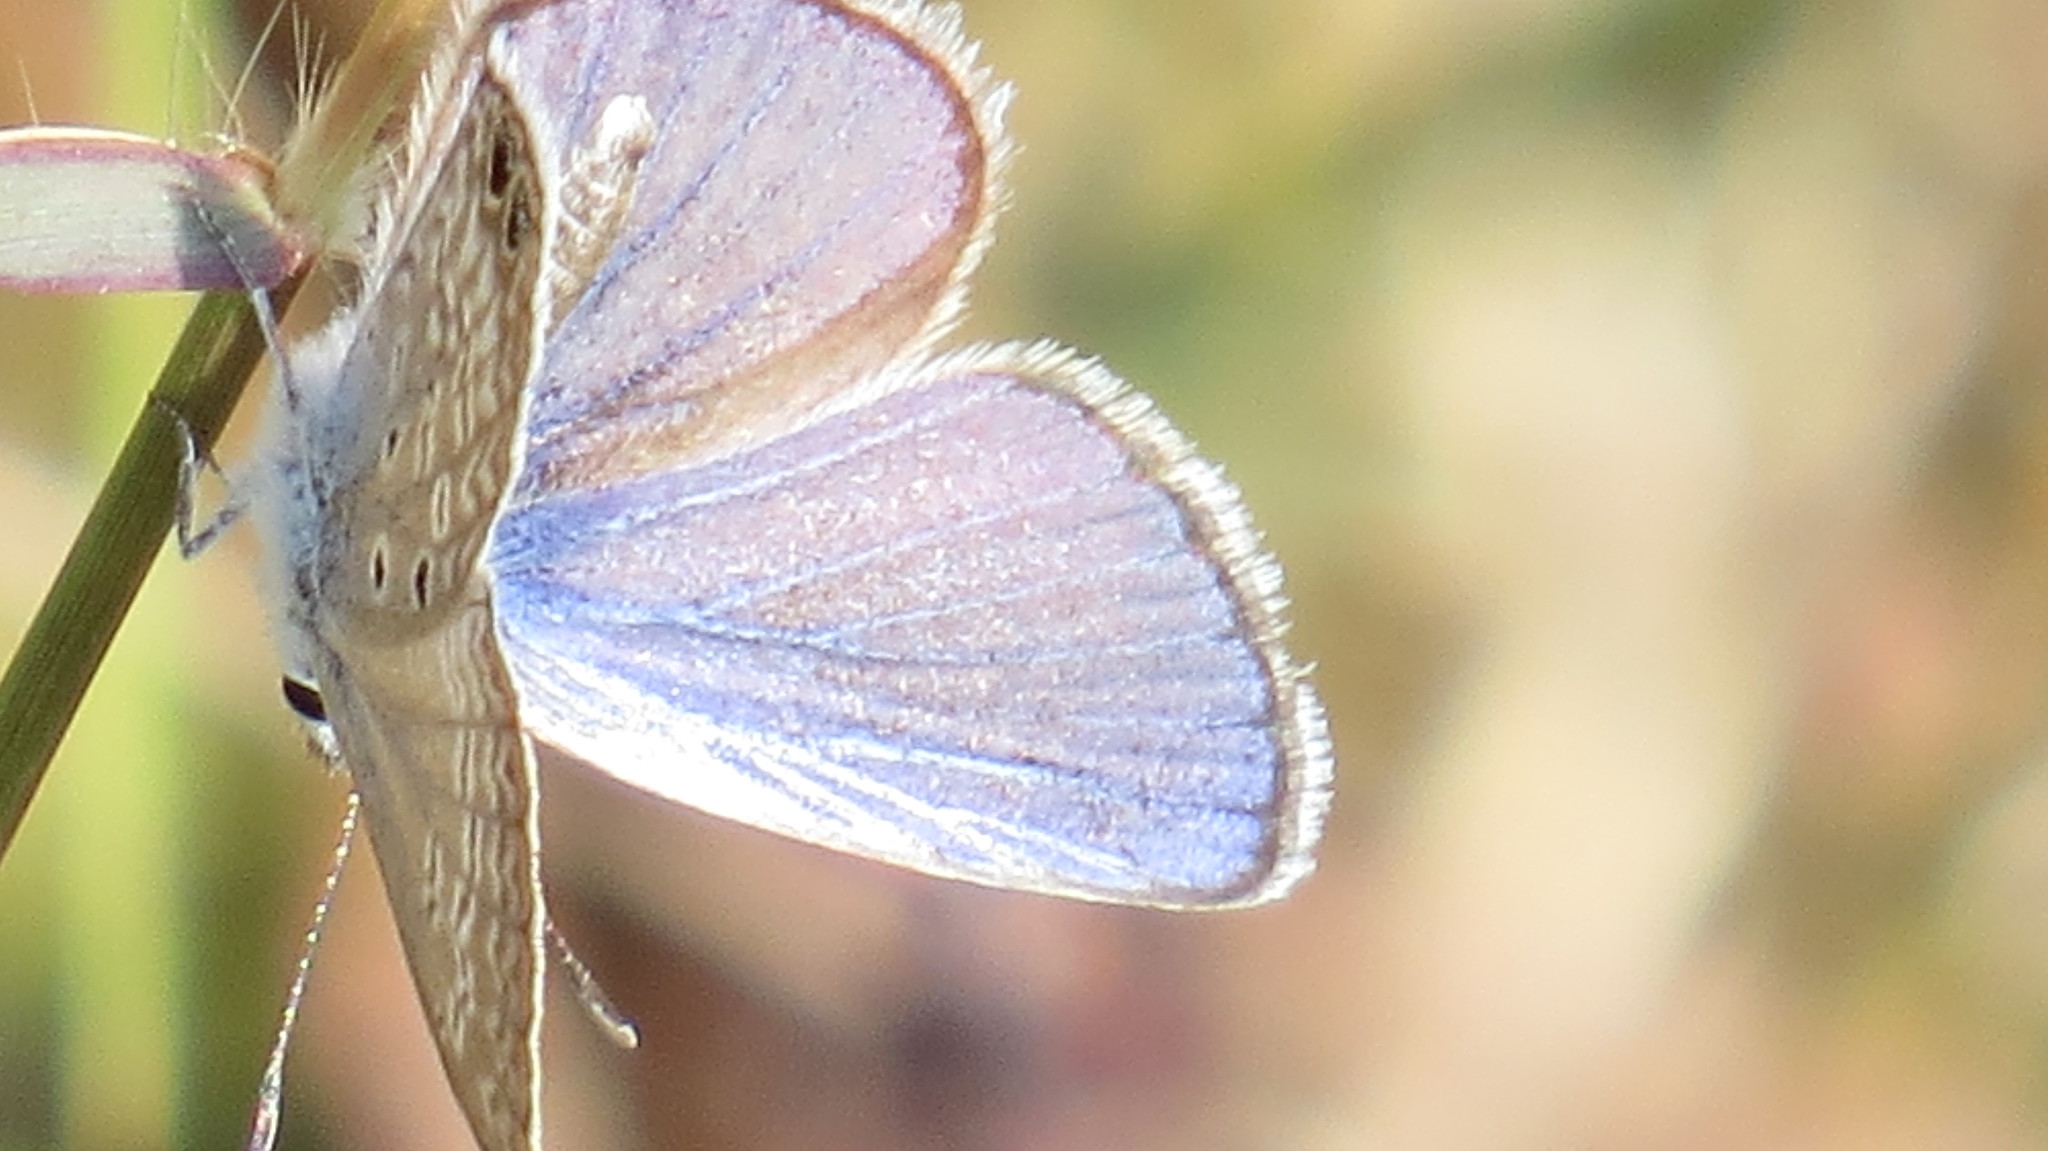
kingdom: Animalia
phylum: Arthropoda
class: Insecta
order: Lepidoptera
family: Lycaenidae
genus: Hemiargus
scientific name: Hemiargus ceraunus
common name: Ceraunus blue
